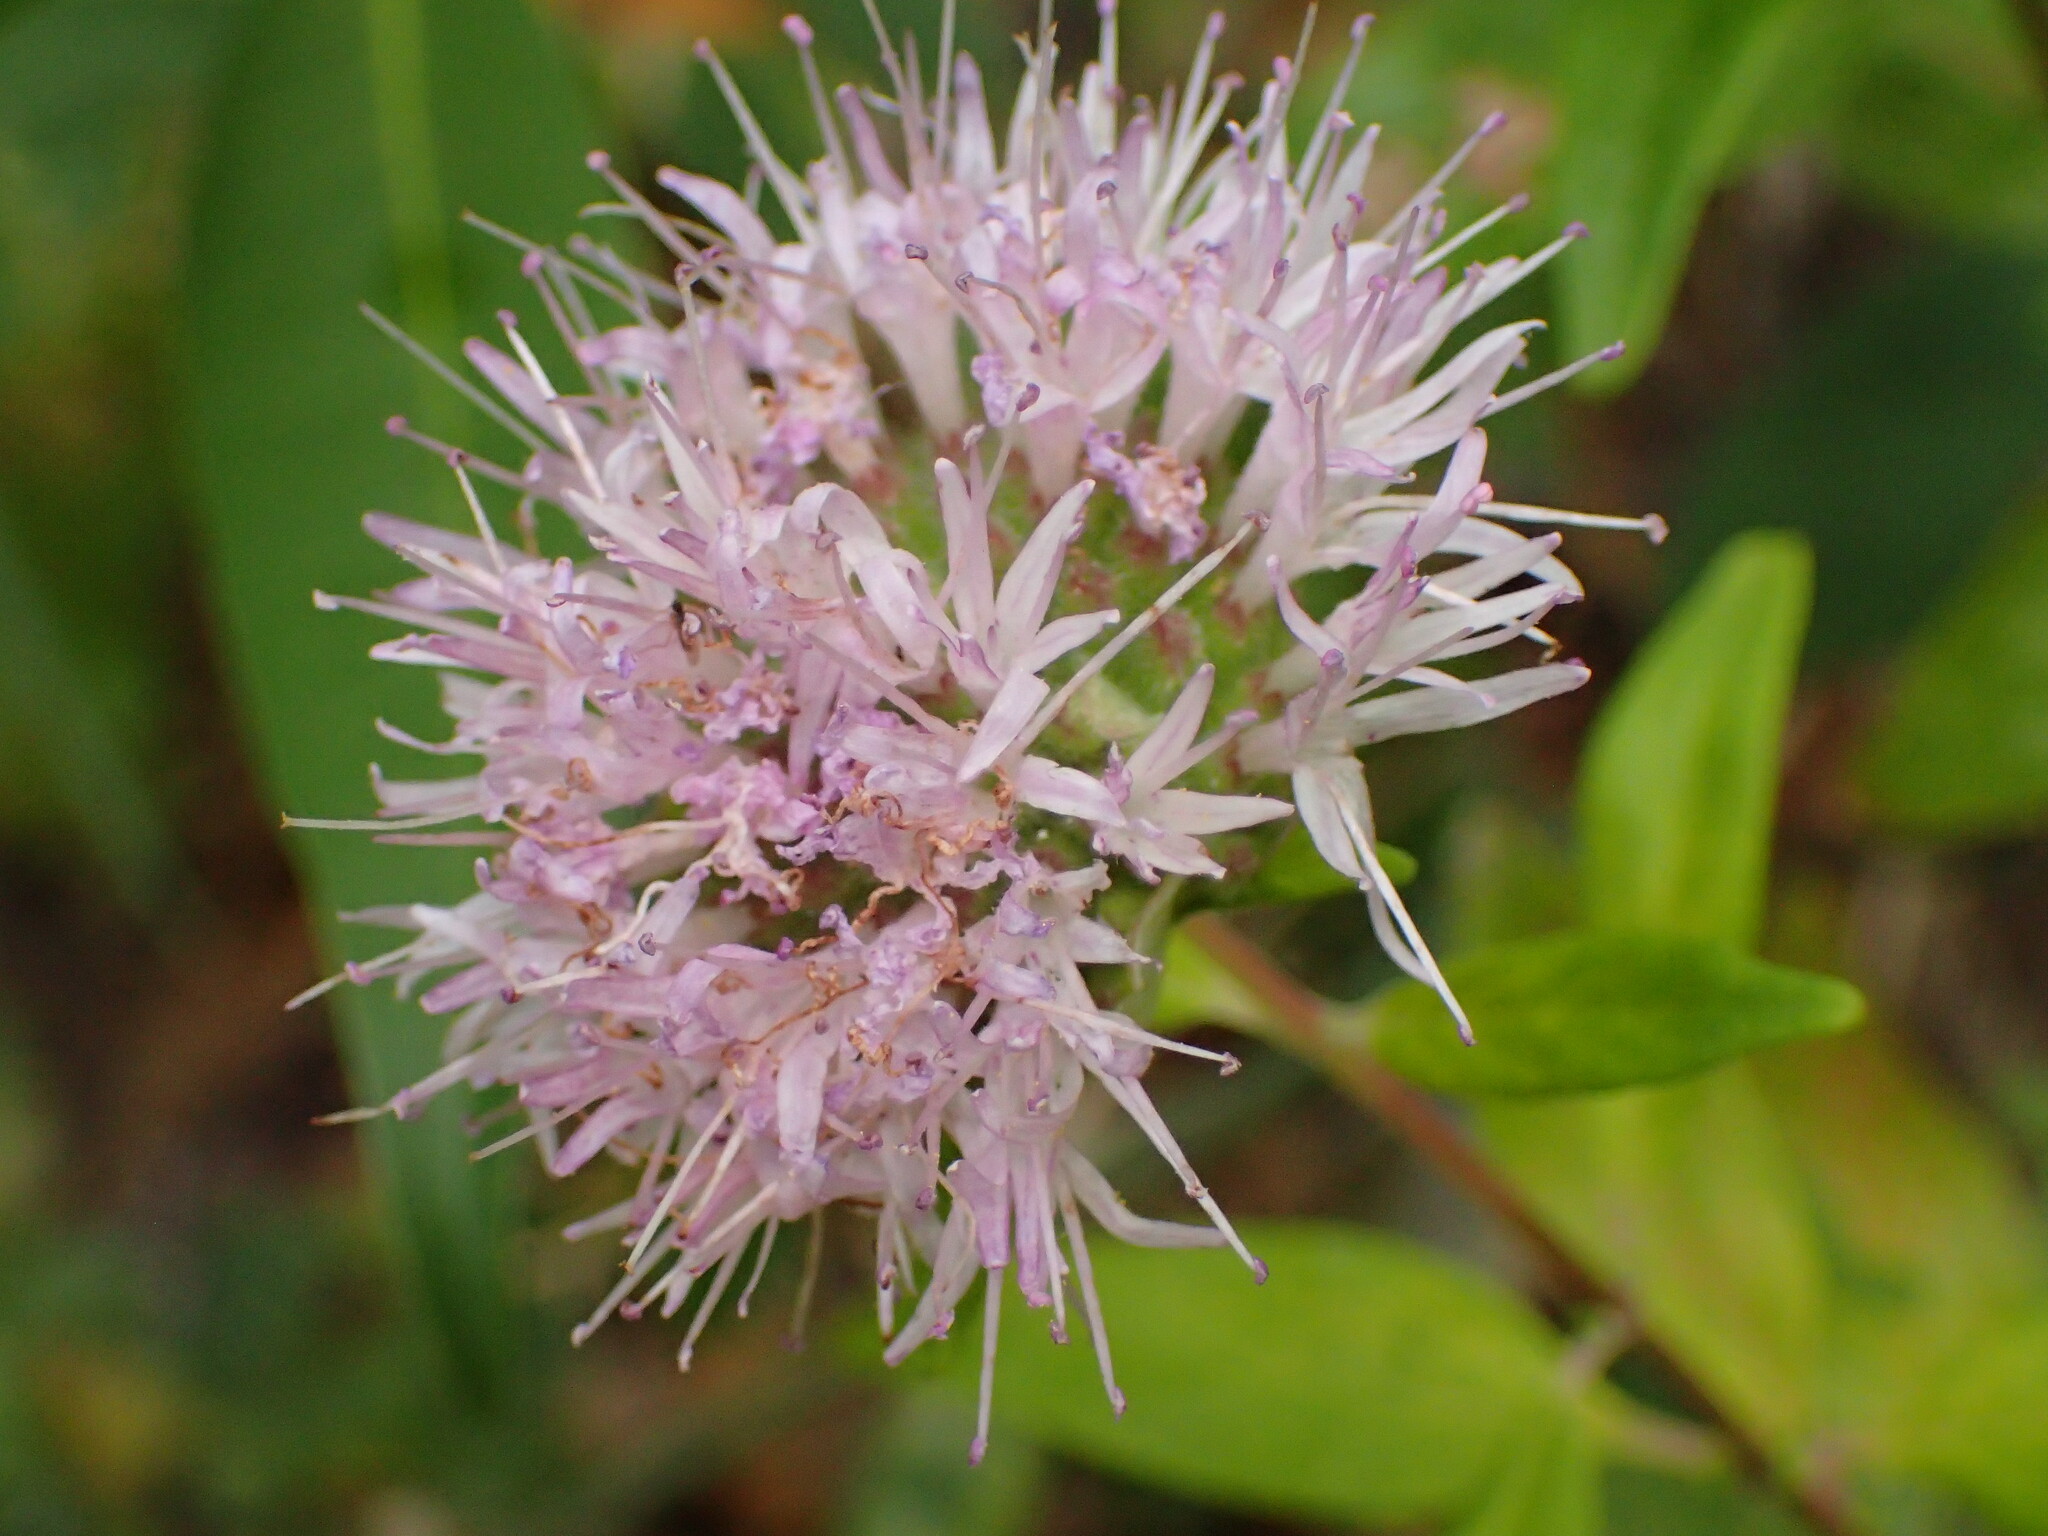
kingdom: Plantae
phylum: Tracheophyta
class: Magnoliopsida
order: Lamiales
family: Lamiaceae
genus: Monardella
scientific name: Monardella hypoleuca
